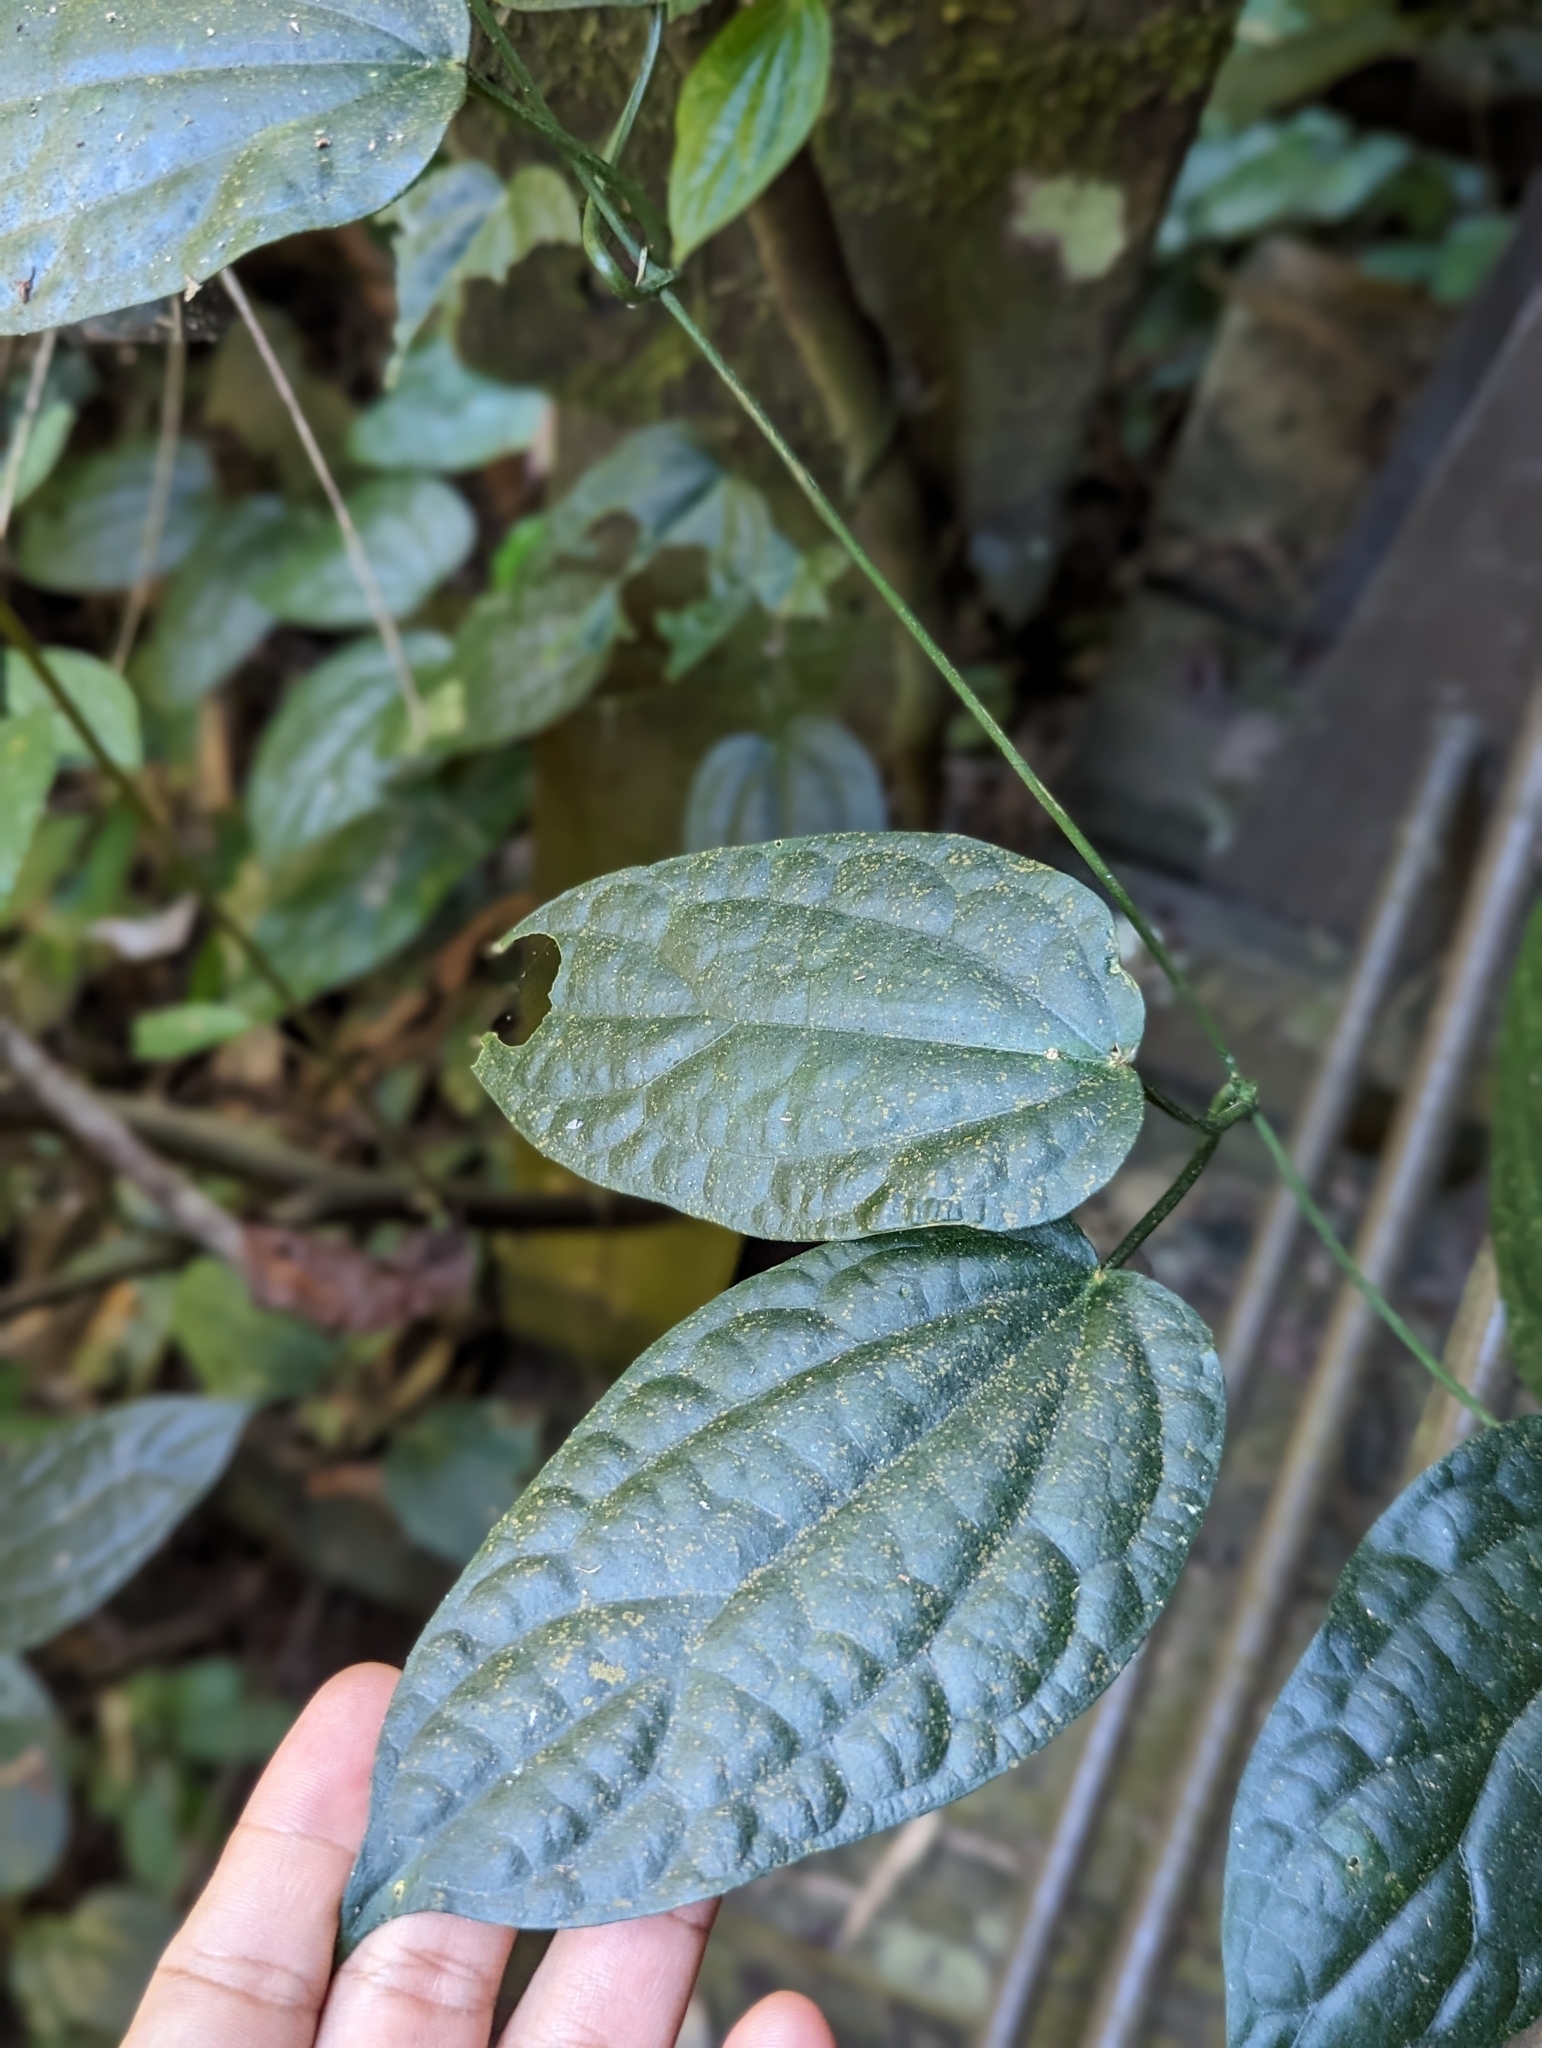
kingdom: Plantae
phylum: Tracheophyta
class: Magnoliopsida
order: Gentianales
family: Apocynaceae
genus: Heterostemma
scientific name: Heterostemma brownii
